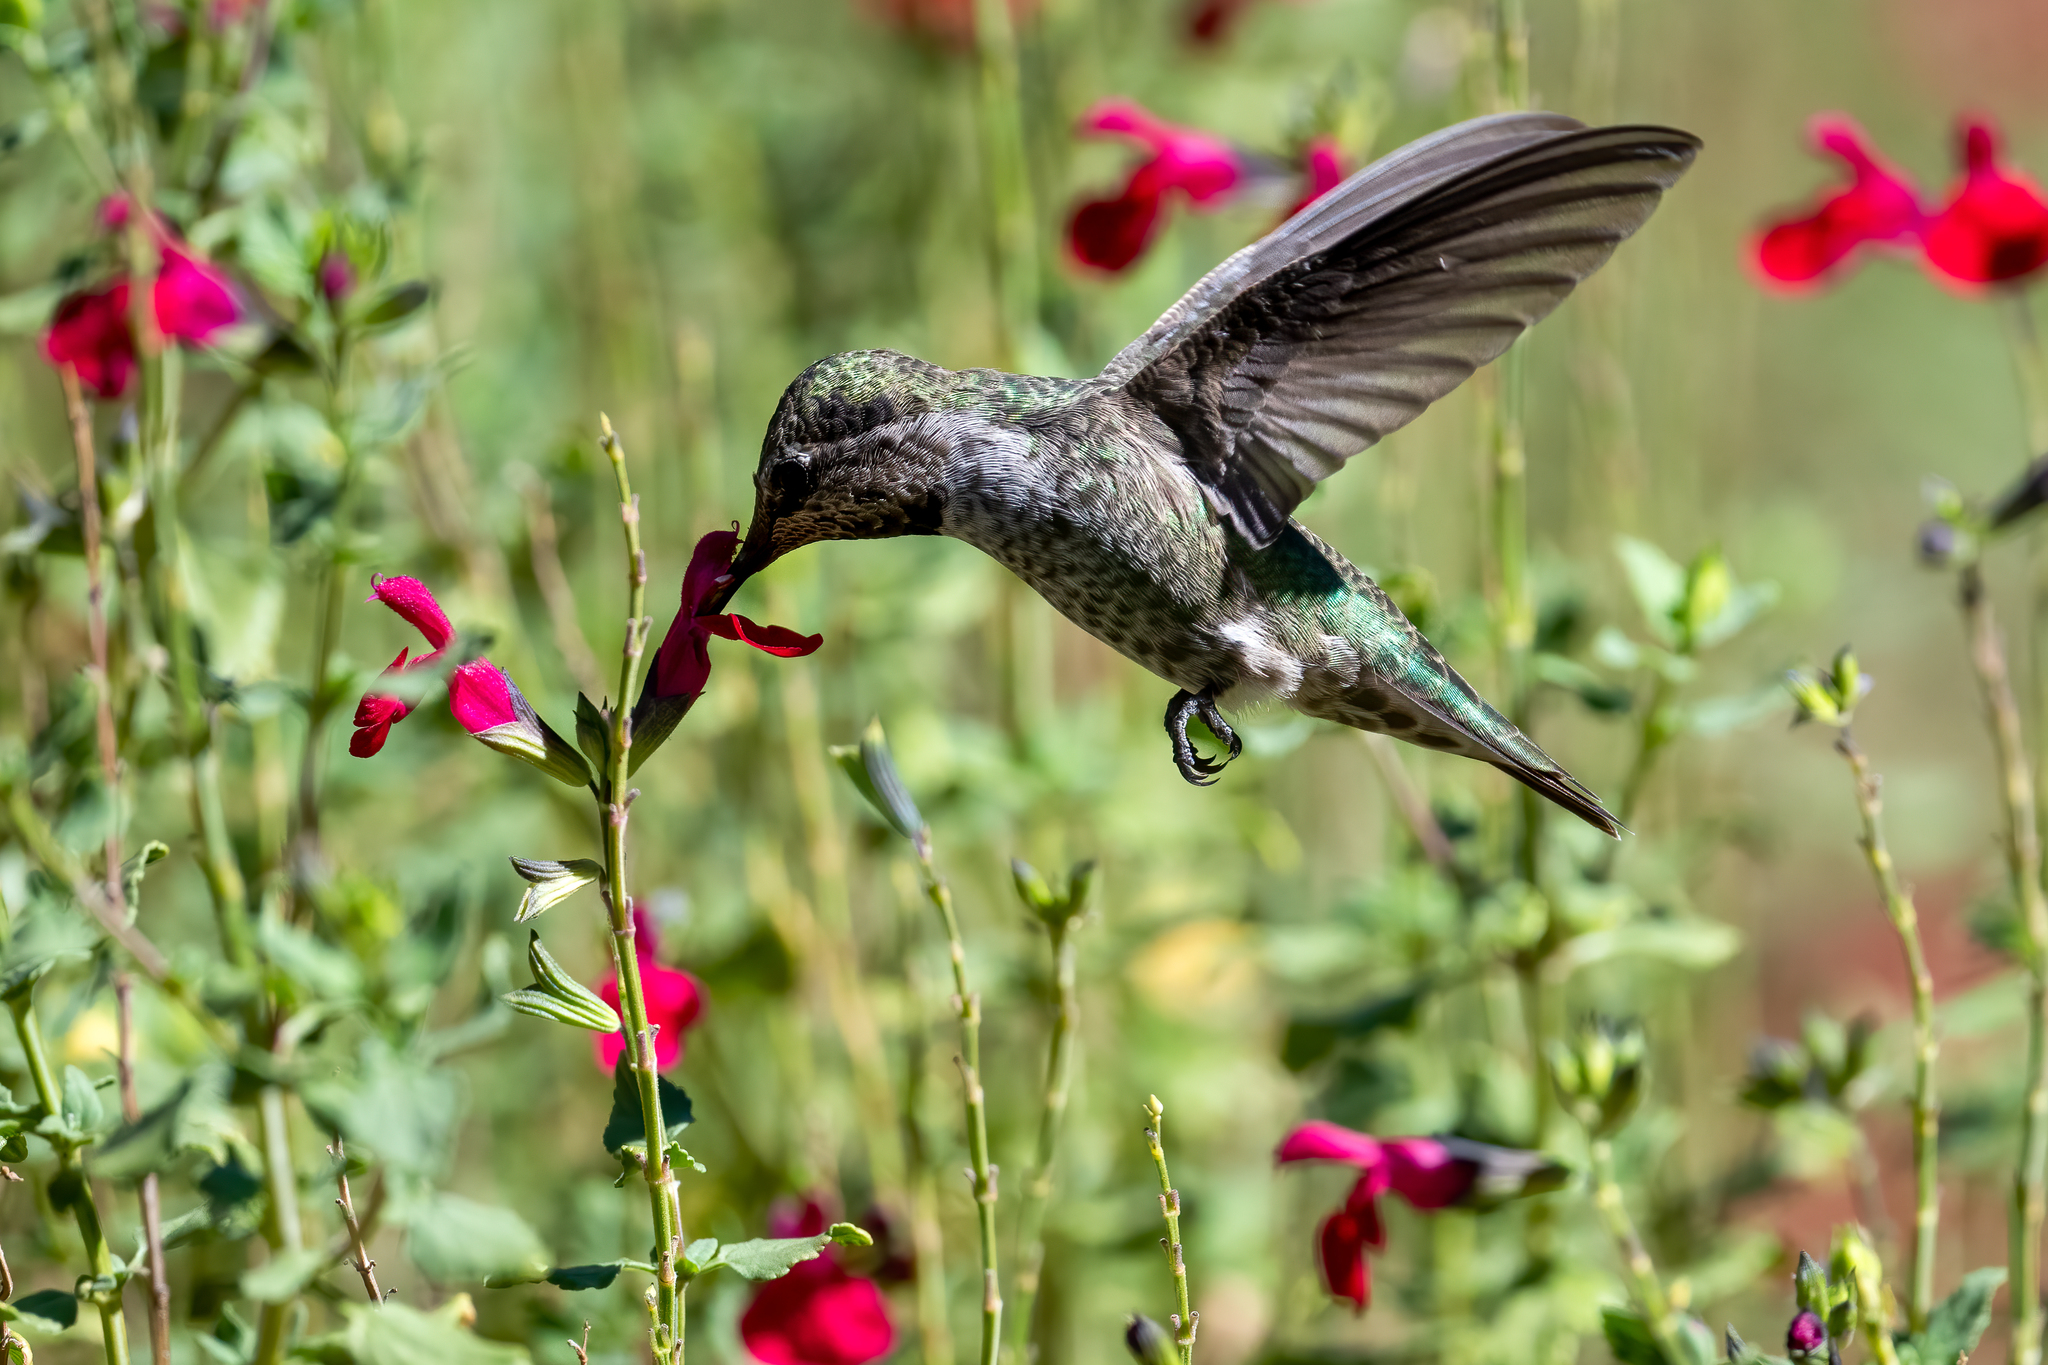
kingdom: Animalia
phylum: Chordata
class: Aves
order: Apodiformes
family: Trochilidae
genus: Calypte
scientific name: Calypte anna
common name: Anna's hummingbird
